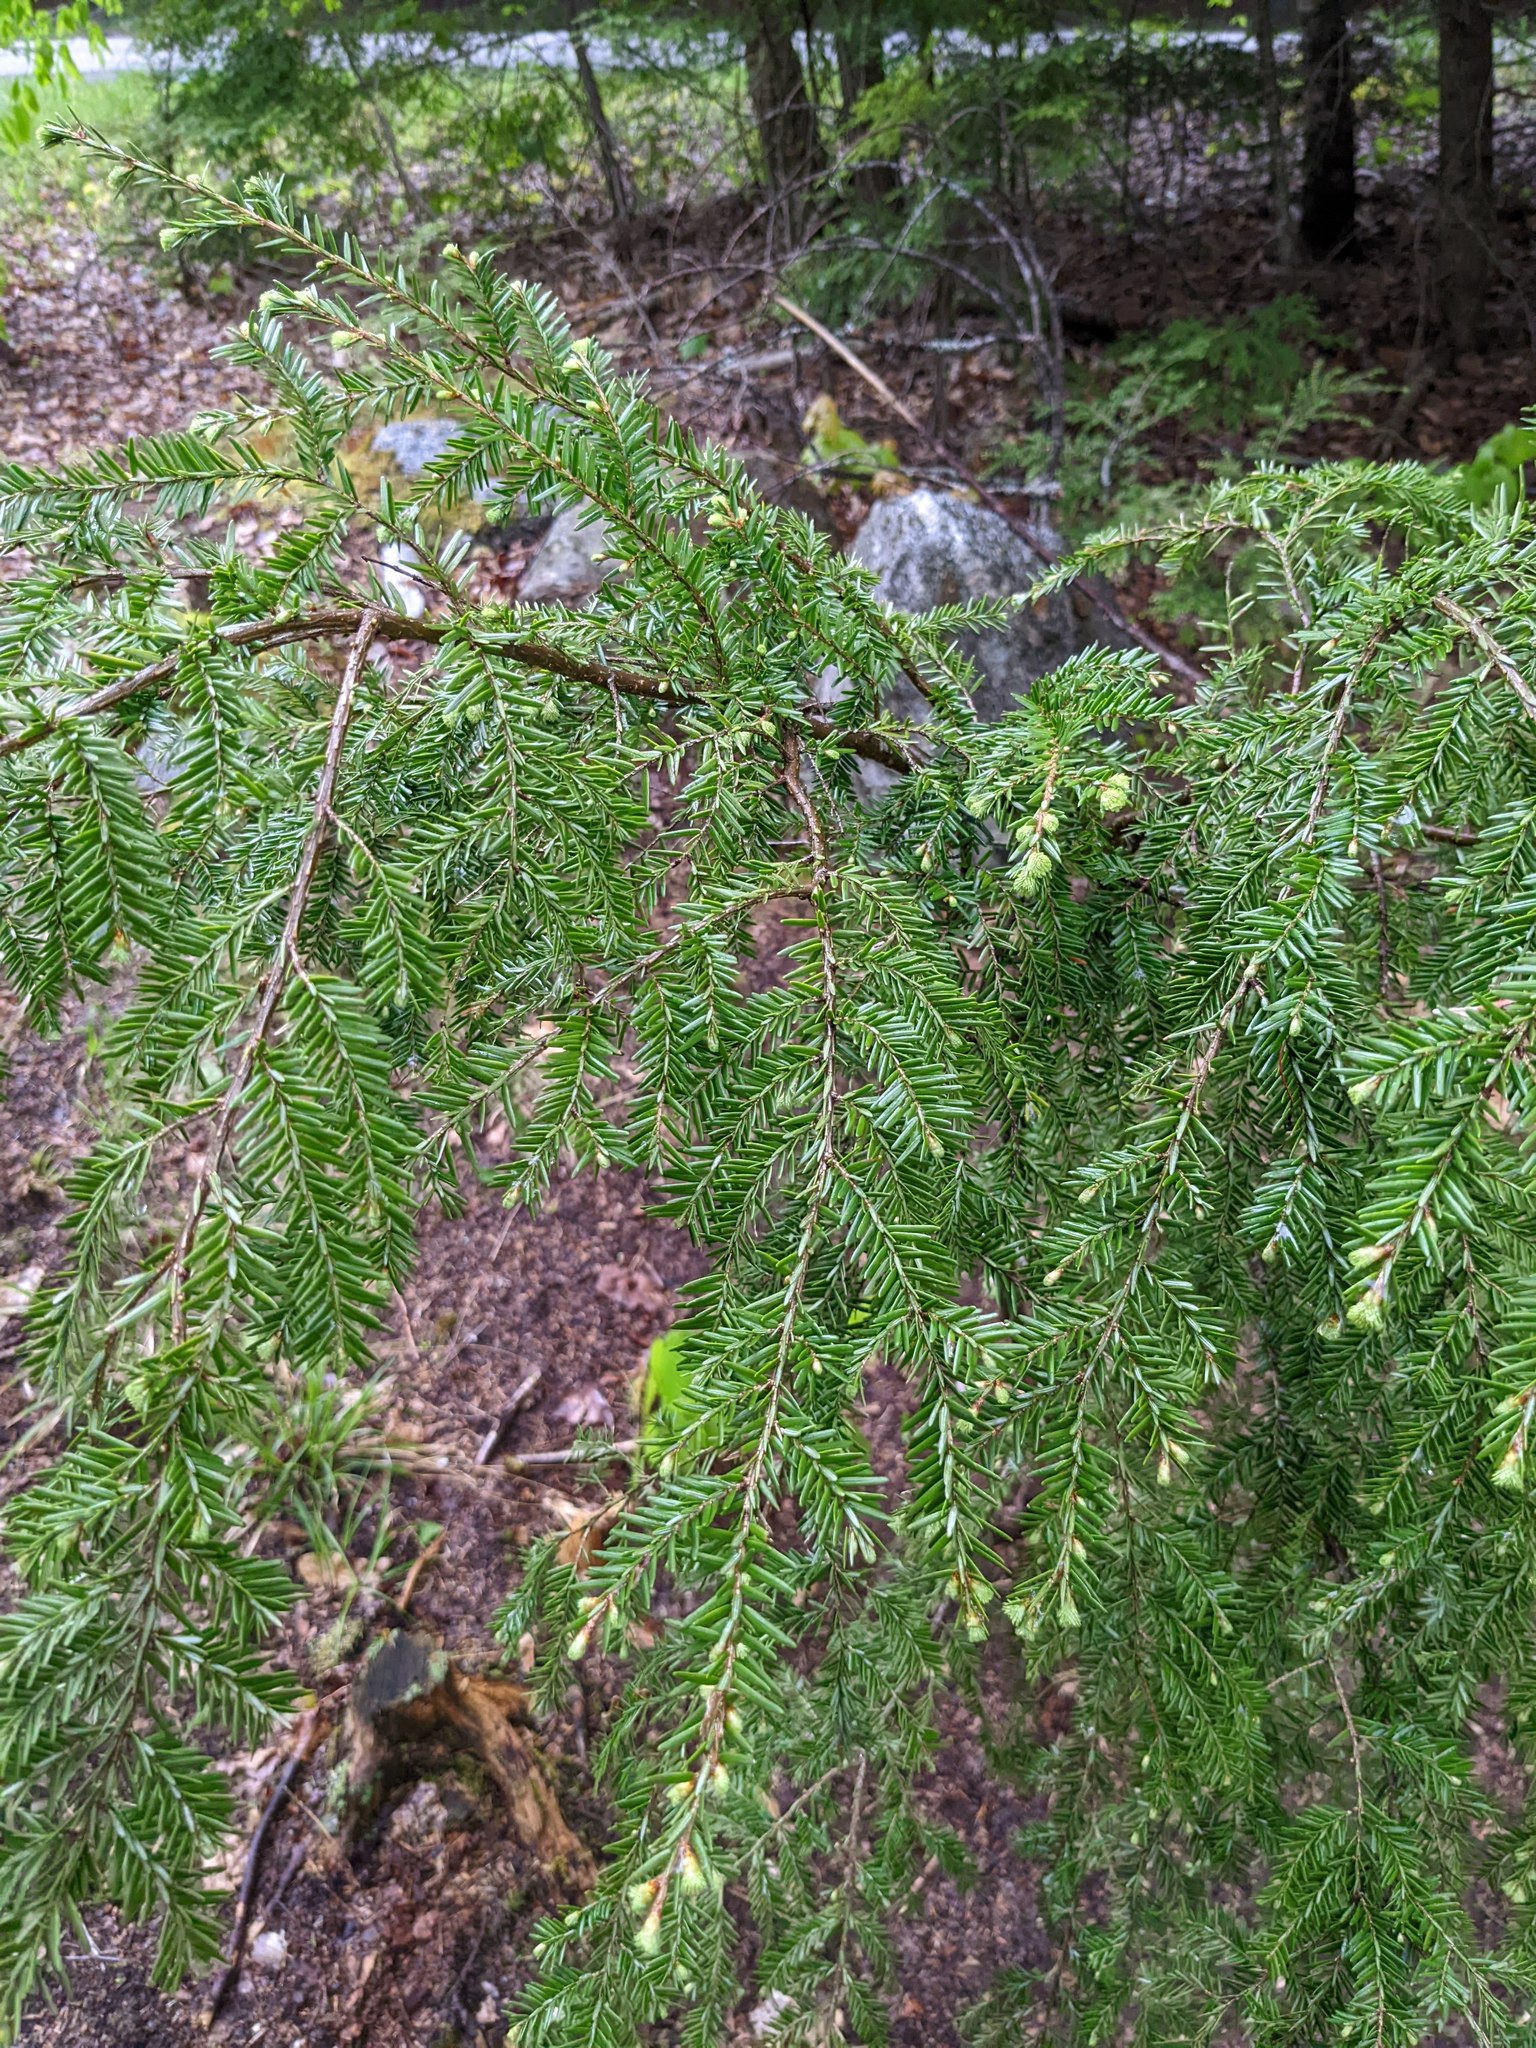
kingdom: Plantae
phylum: Tracheophyta
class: Pinopsida
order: Pinales
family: Pinaceae
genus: Tsuga
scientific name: Tsuga canadensis
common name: Eastern hemlock
